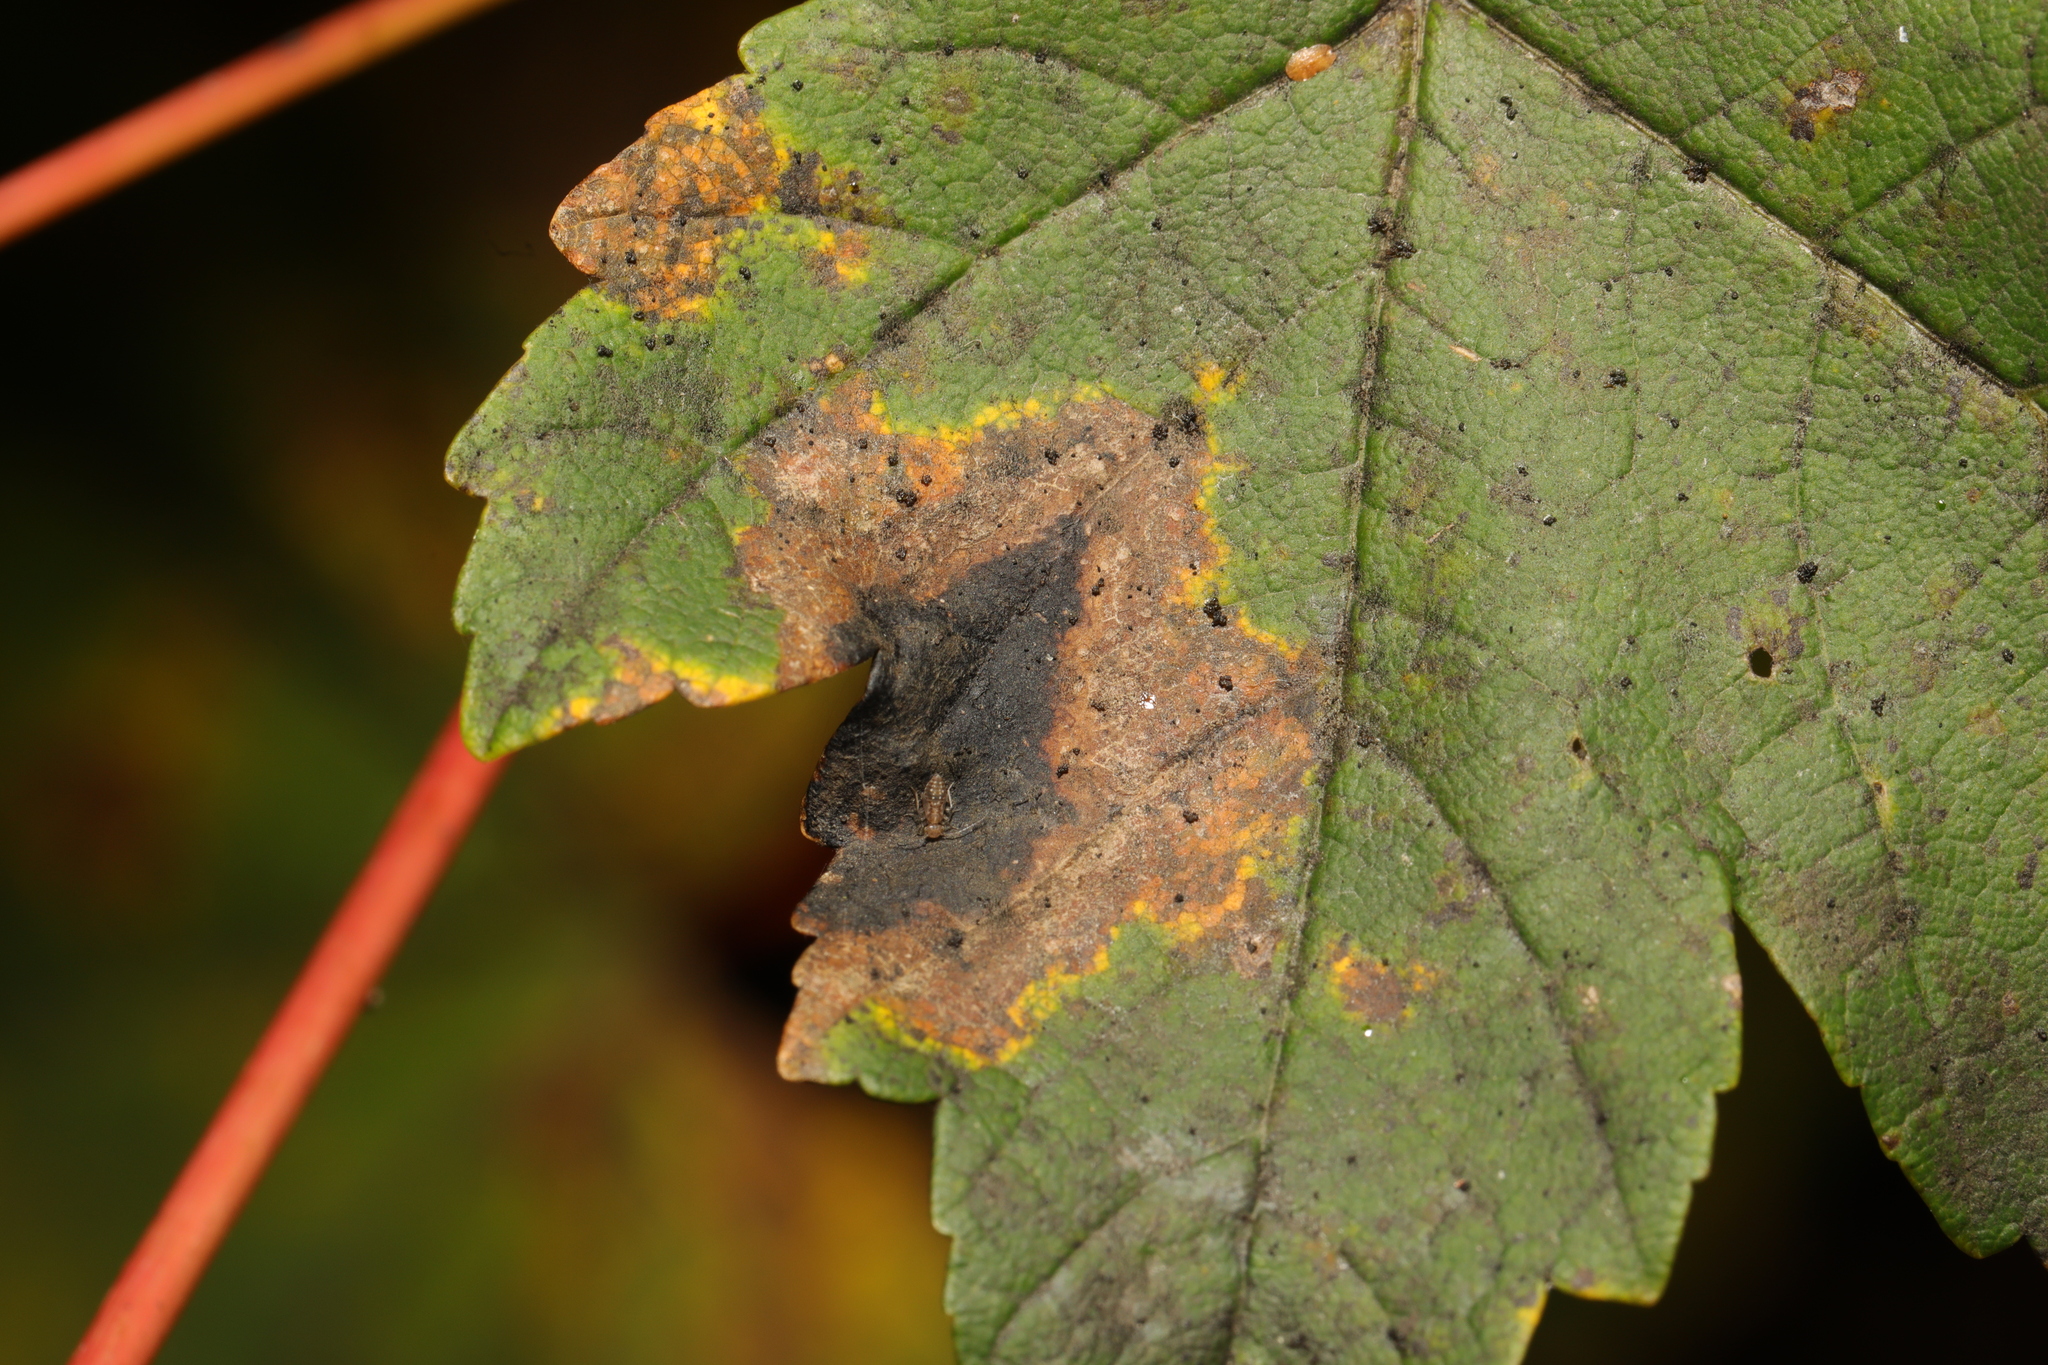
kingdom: Fungi
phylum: Ascomycota
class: Leotiomycetes
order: Rhytismatales
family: Rhytismataceae
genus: Rhytisma
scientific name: Rhytisma acerinum
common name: European tar spot
